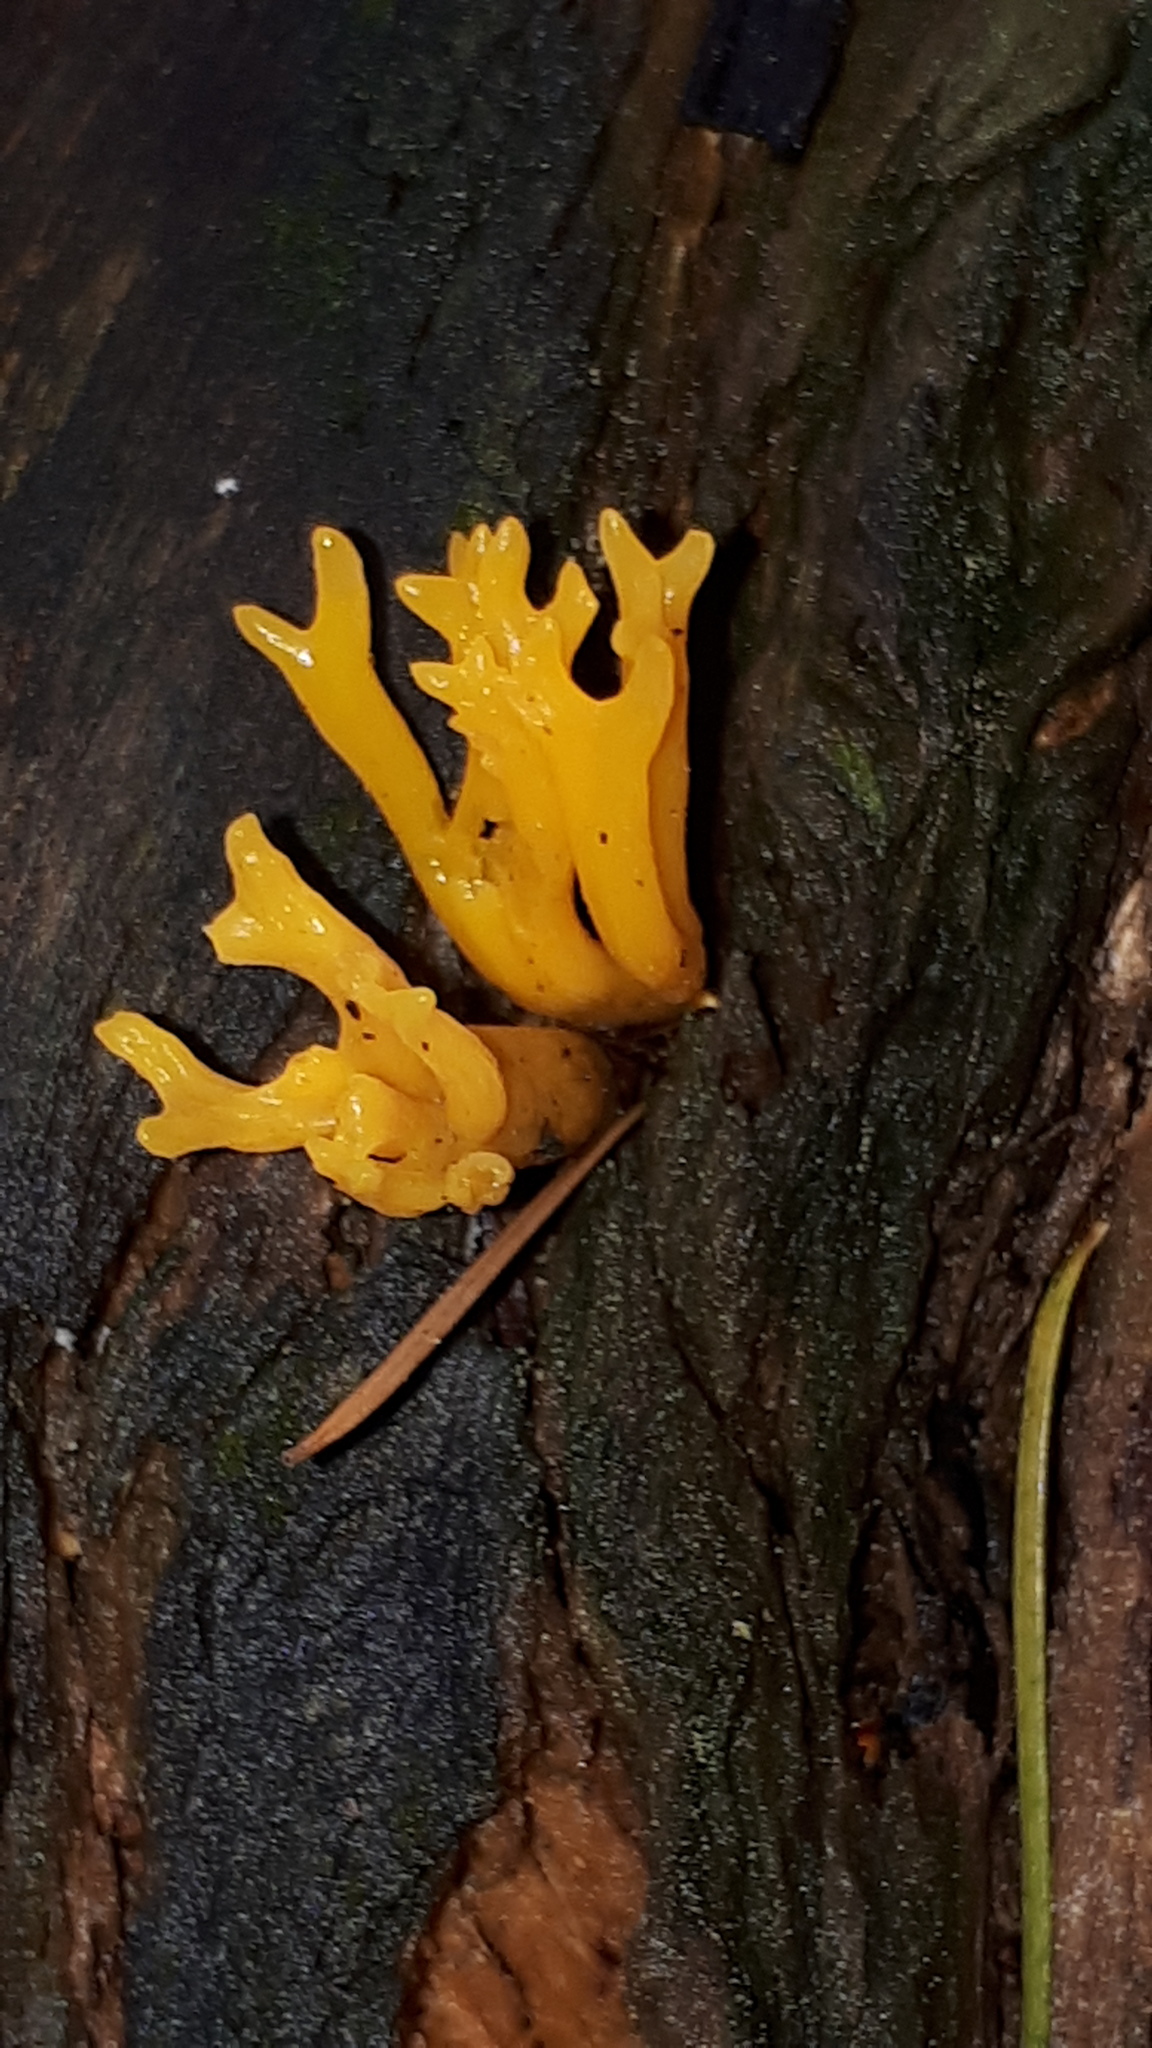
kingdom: Fungi
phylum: Basidiomycota
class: Dacrymycetes
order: Dacrymycetales
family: Dacrymycetaceae
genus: Calocera
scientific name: Calocera viscosa
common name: Yellow stagshorn
